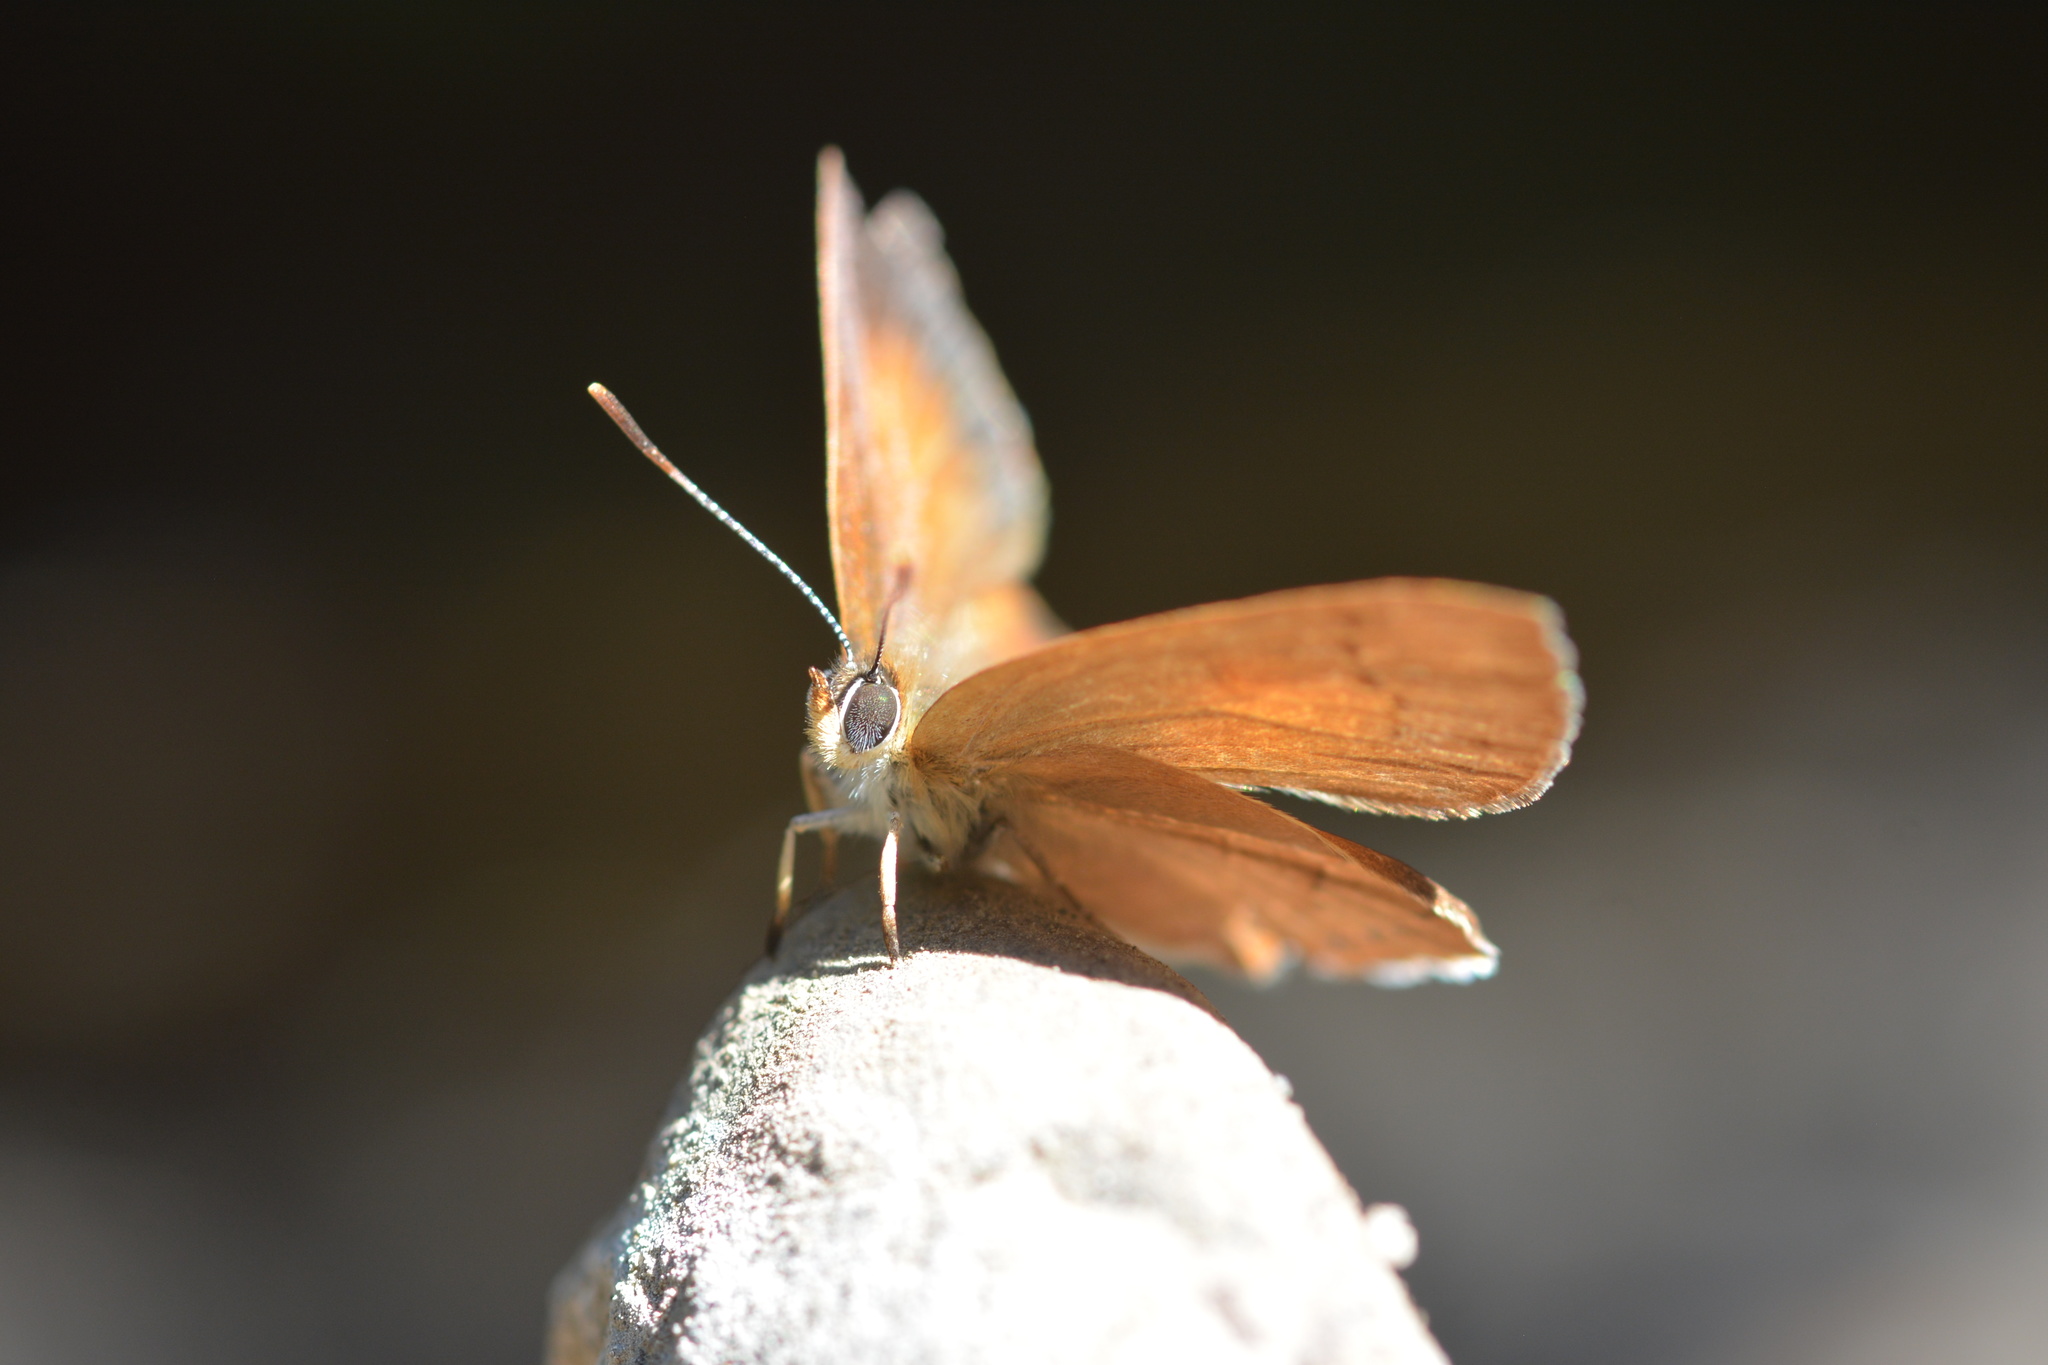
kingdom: Animalia
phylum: Arthropoda
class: Insecta
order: Lepidoptera
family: Lycaenidae
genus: Habrodais
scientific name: Habrodais grunus
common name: Golden hairstreak
